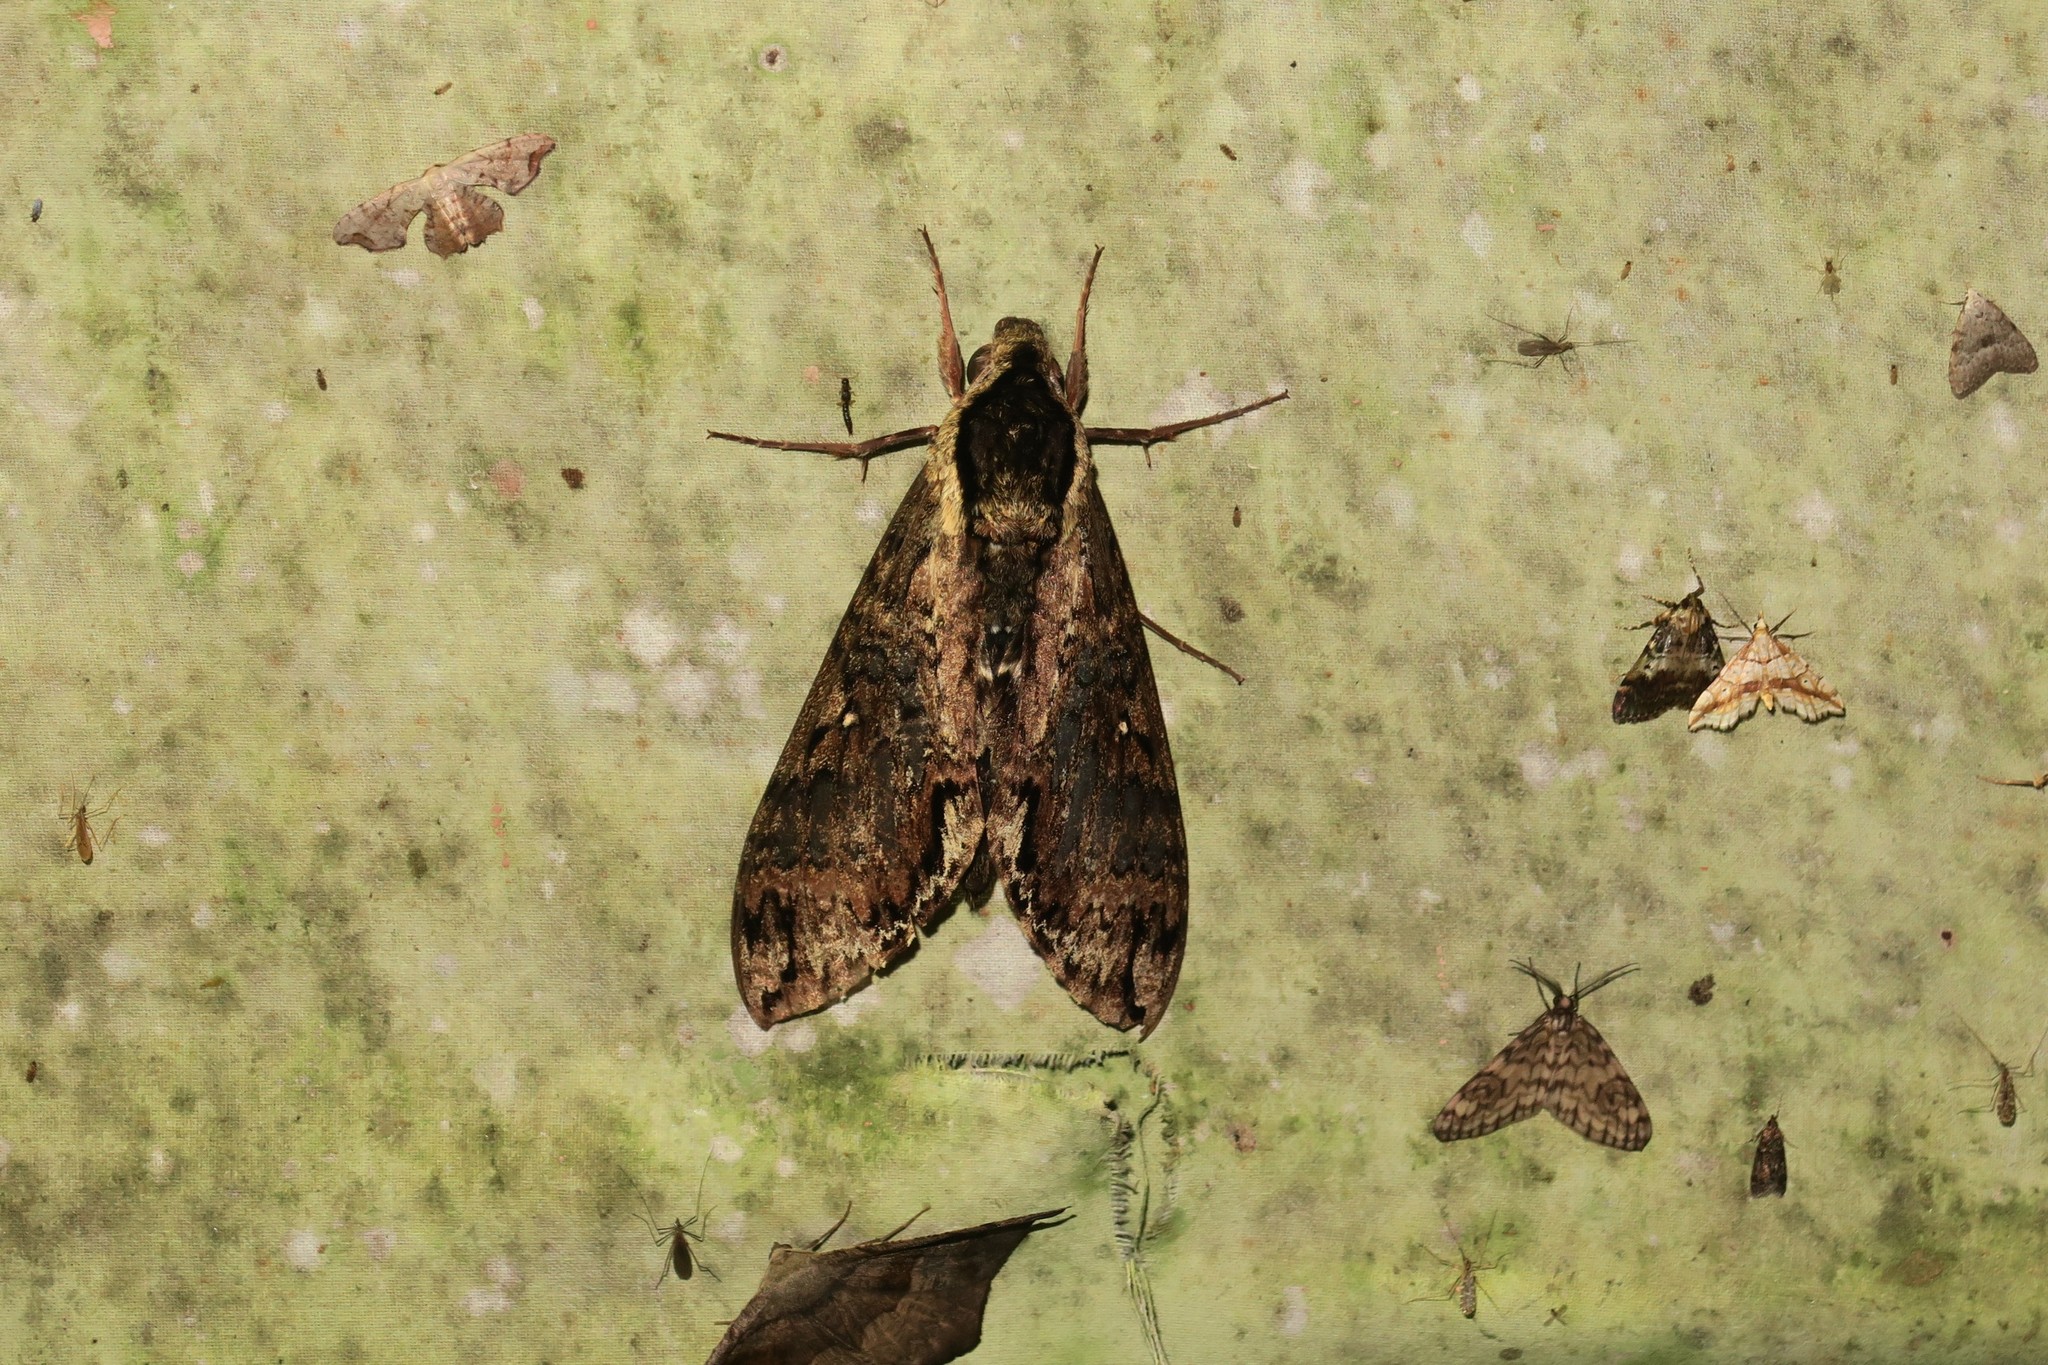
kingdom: Animalia
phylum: Arthropoda
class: Insecta
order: Lepidoptera
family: Sphingidae
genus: Manduca
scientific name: Manduca scutata
